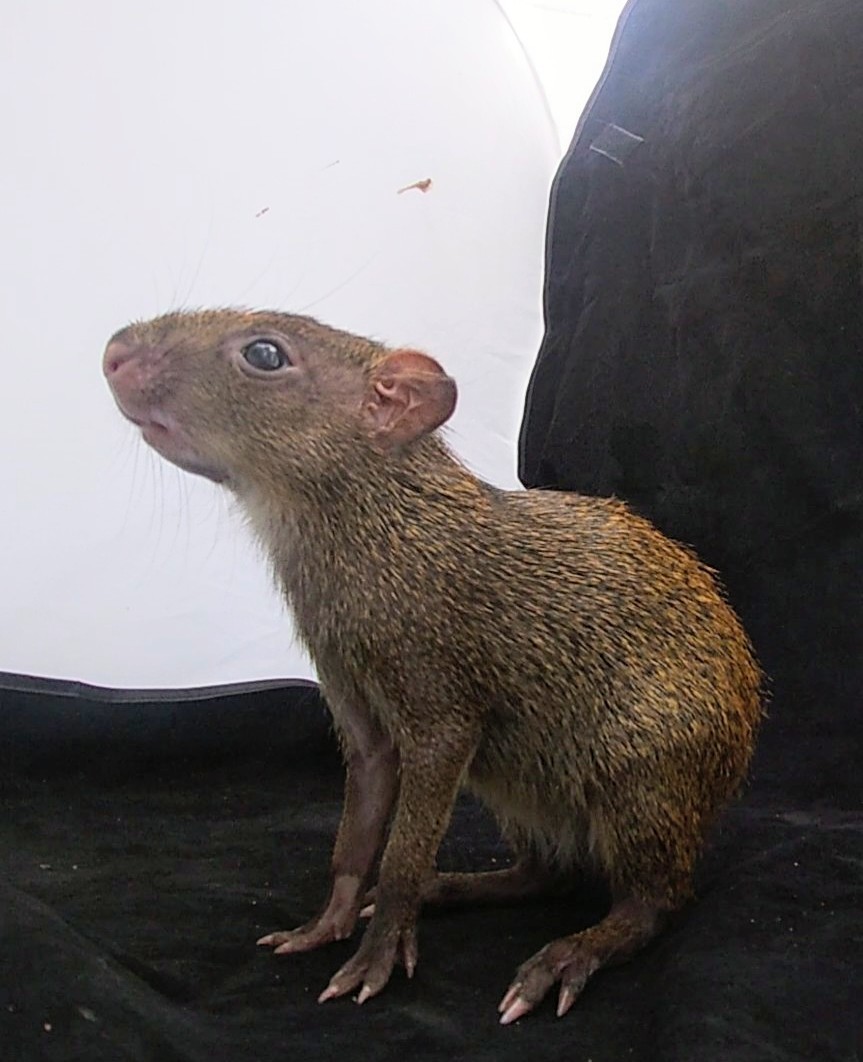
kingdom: Animalia
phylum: Chordata
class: Mammalia
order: Rodentia
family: Dasyproctidae
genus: Dasyprocta
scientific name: Dasyprocta punctata
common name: Central american agouti
